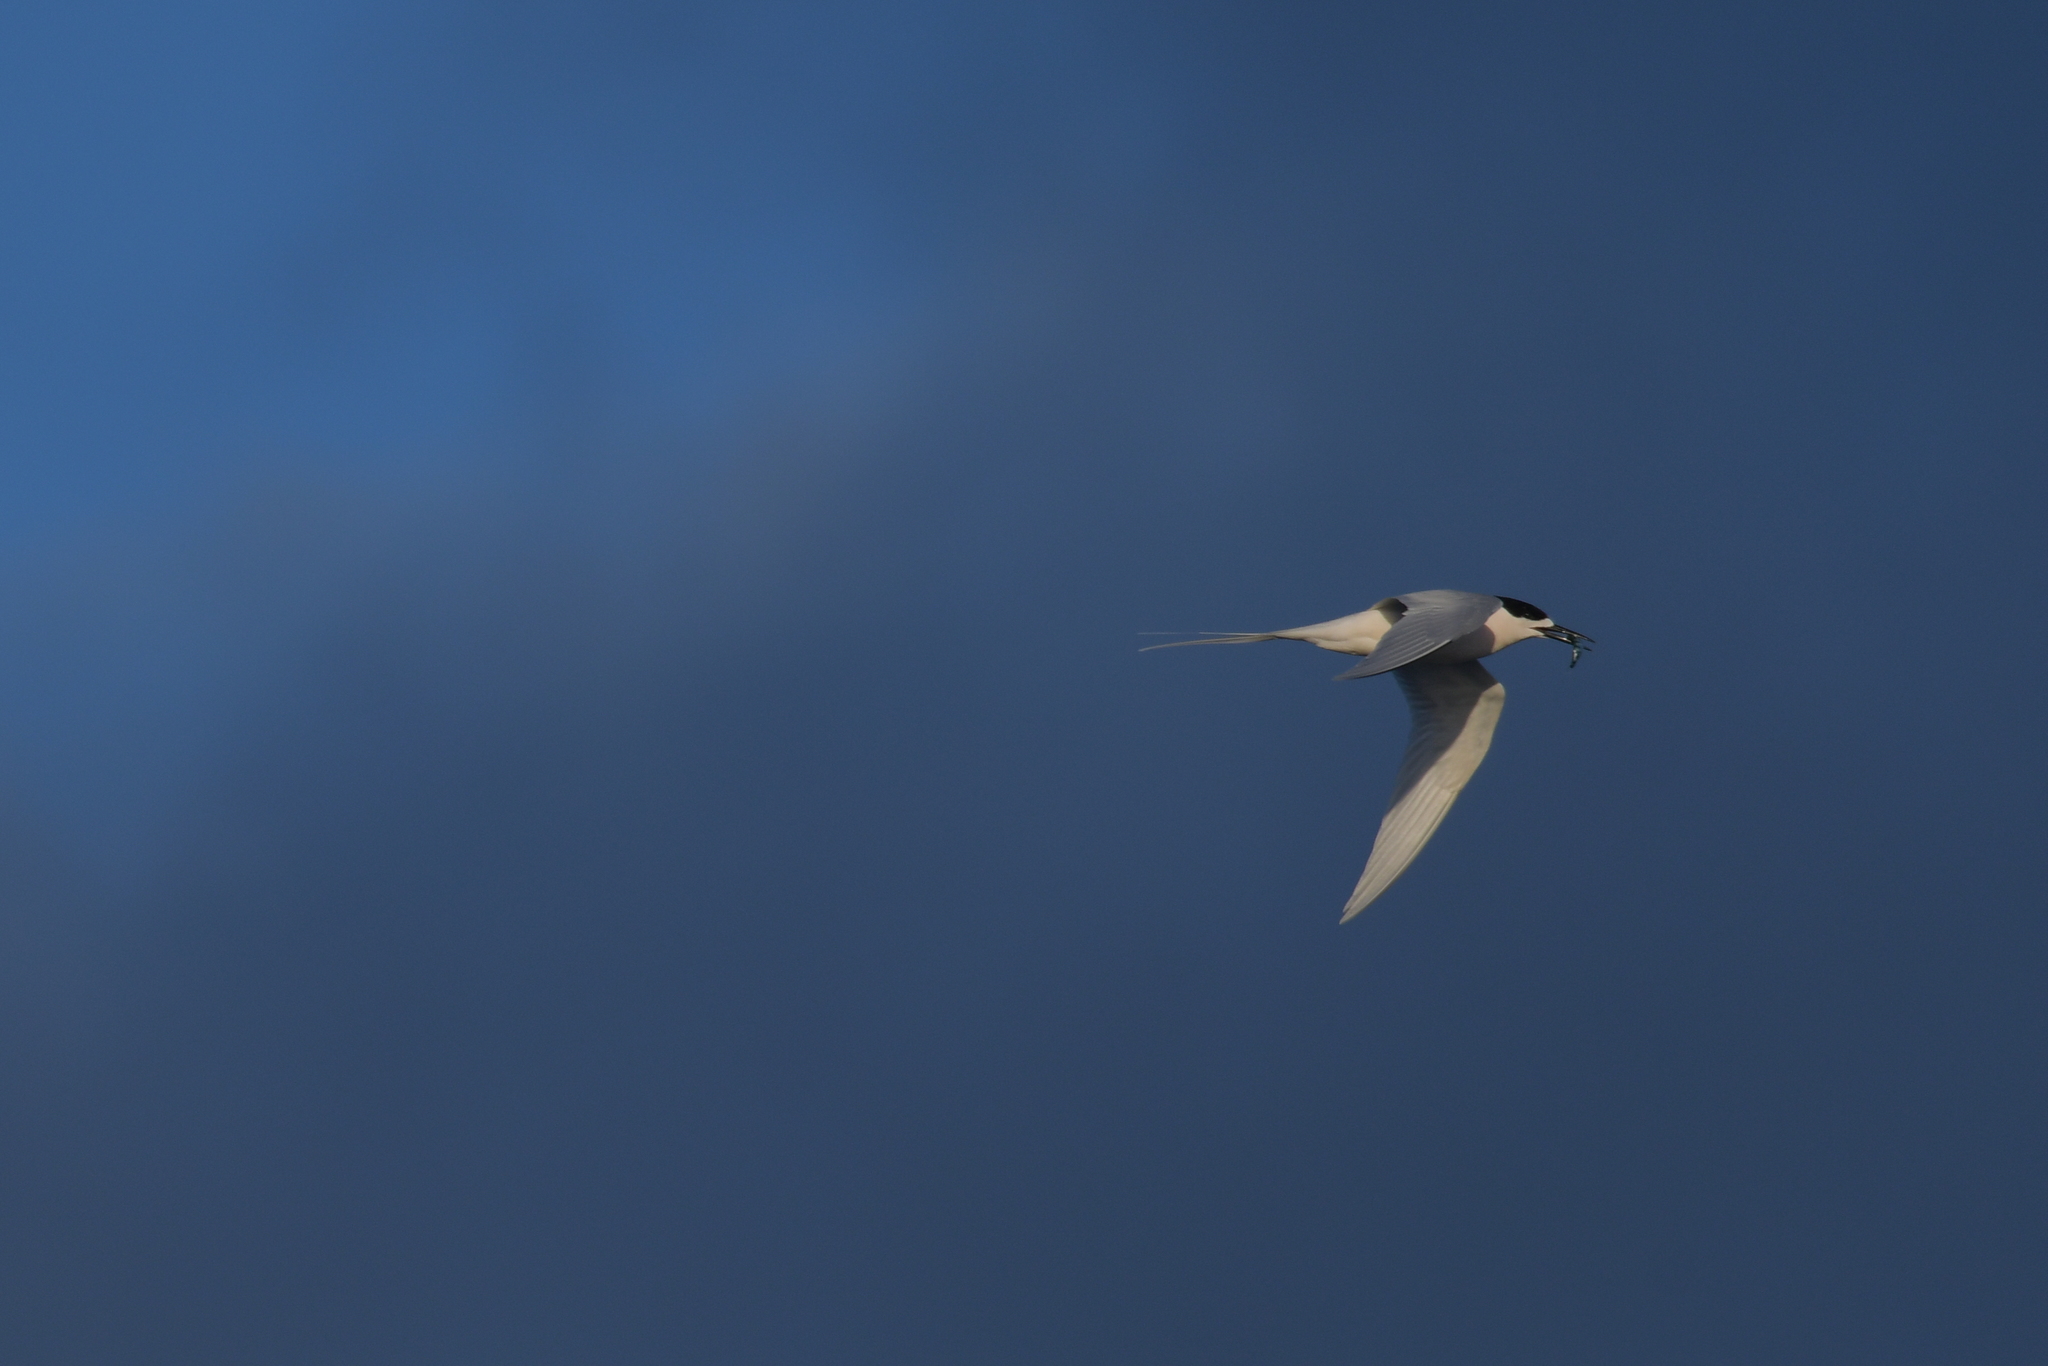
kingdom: Animalia
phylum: Chordata
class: Aves
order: Charadriiformes
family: Laridae
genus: Sterna
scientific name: Sterna striata
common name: White-fronted tern
